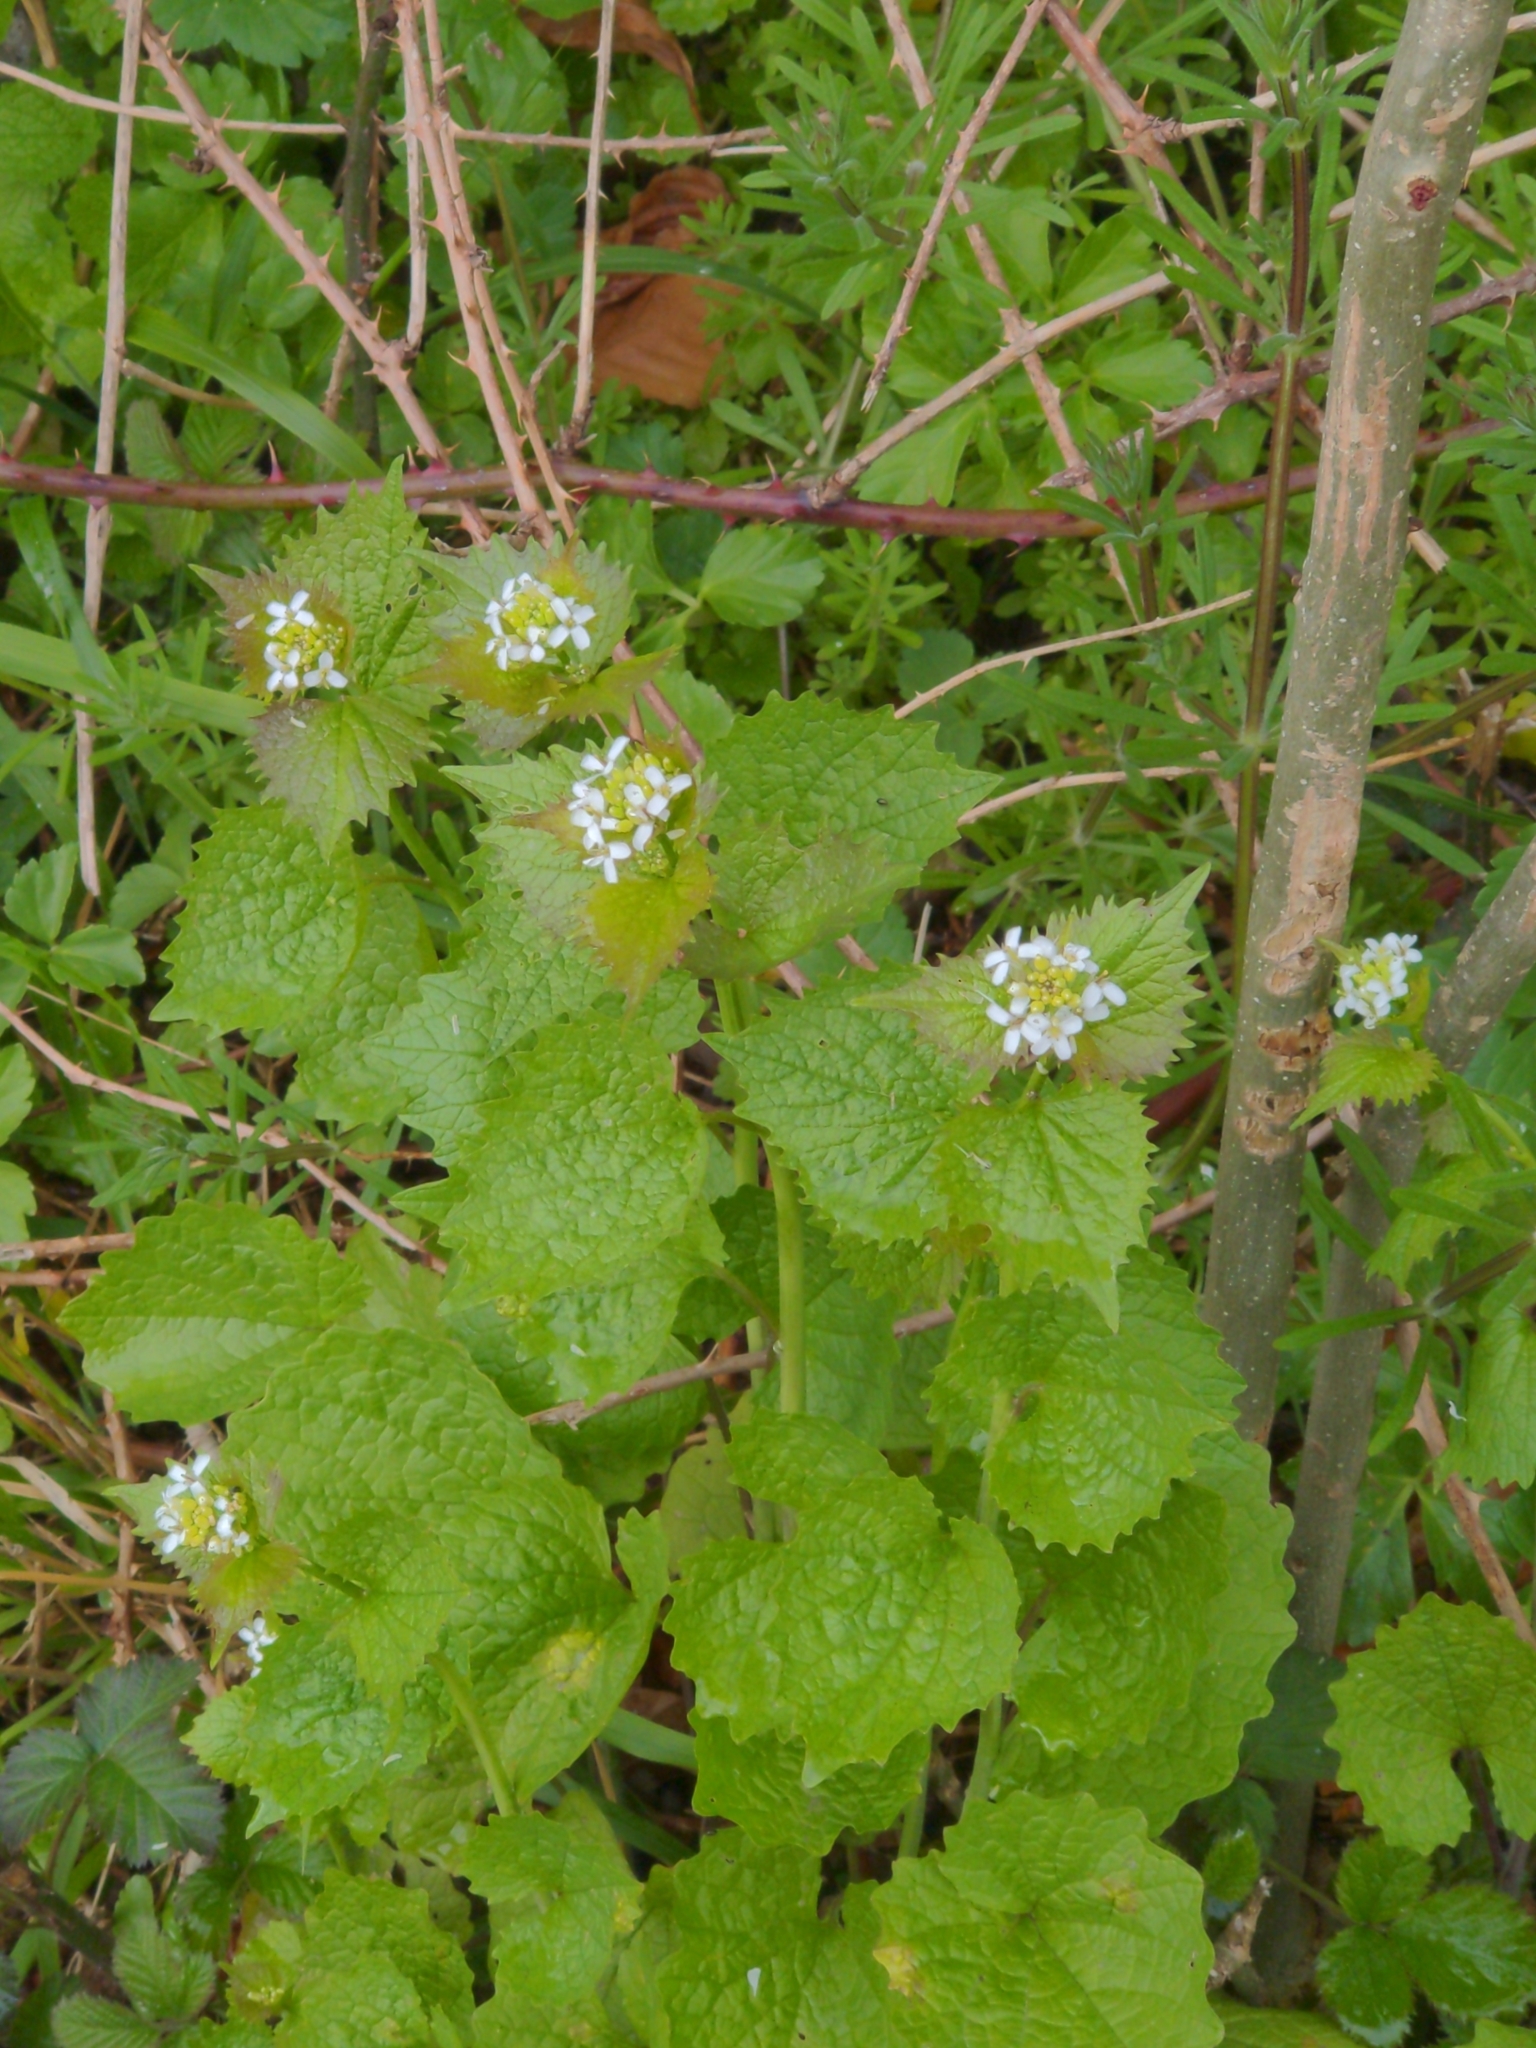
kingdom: Plantae
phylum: Tracheophyta
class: Magnoliopsida
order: Brassicales
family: Brassicaceae
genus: Alliaria
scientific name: Alliaria petiolata
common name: Garlic mustard
